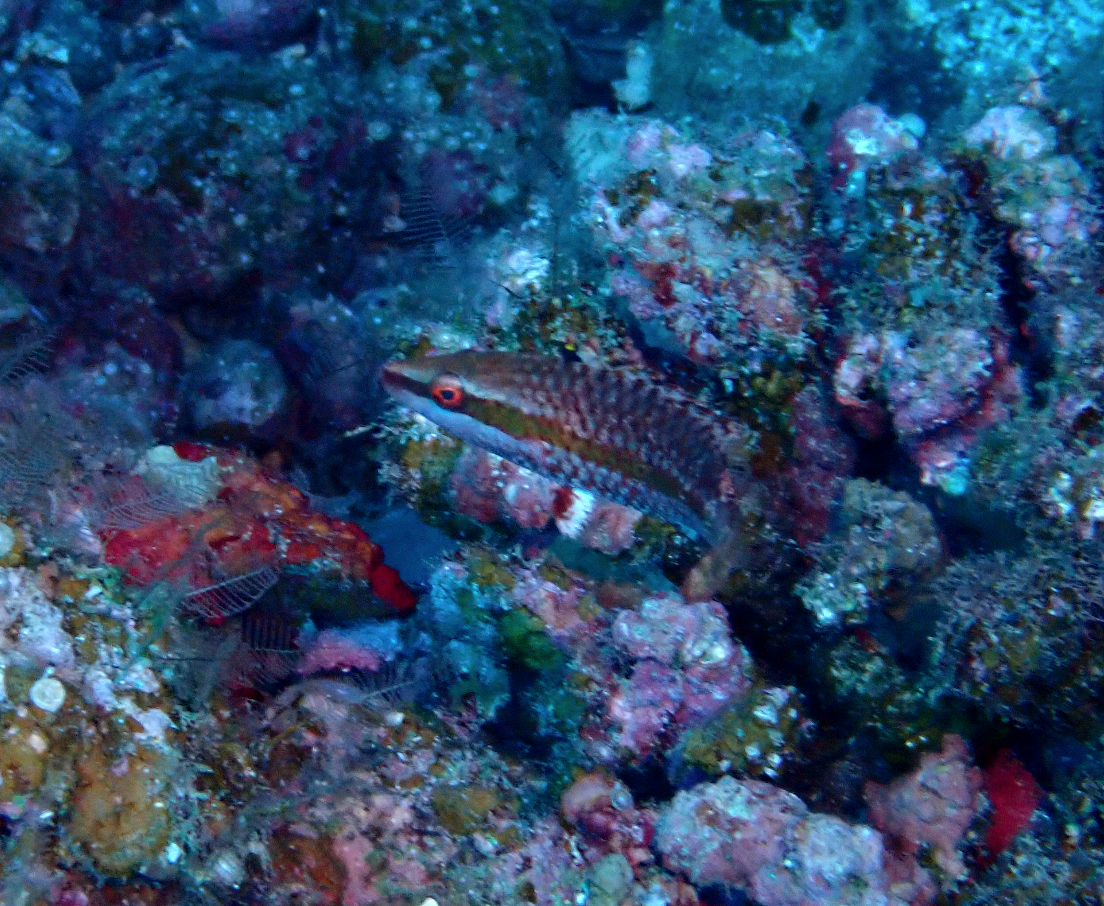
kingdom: Animalia
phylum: Chordata
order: Perciformes
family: Labridae
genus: Cheilio
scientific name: Cheilio inermis
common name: Cigar wrasse
